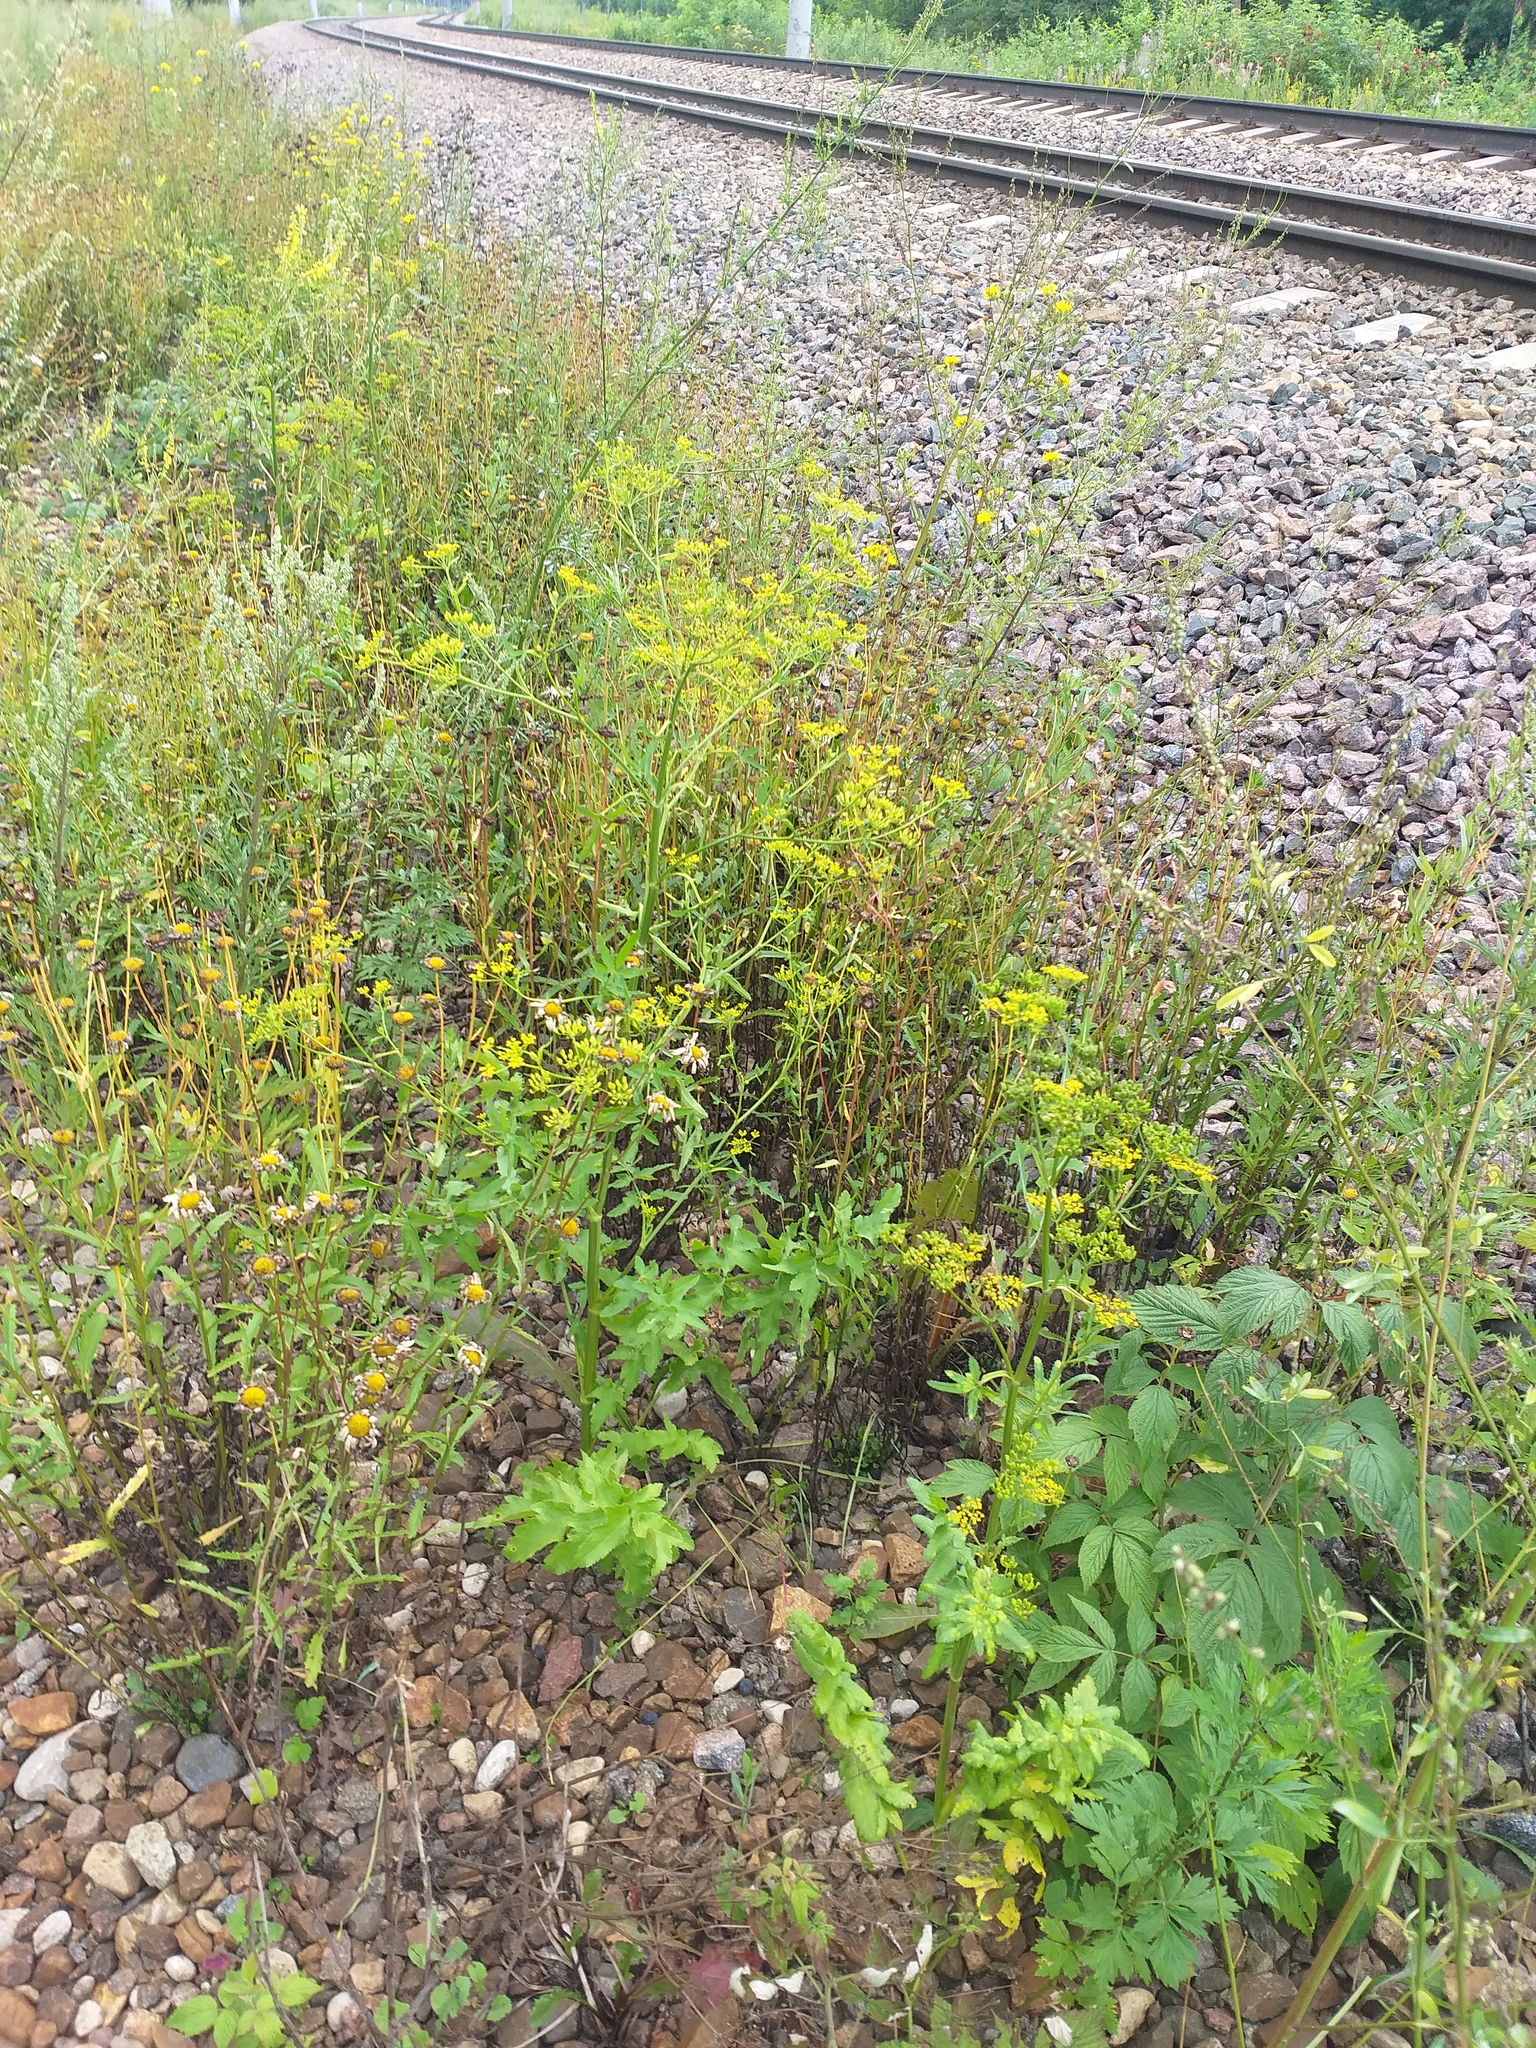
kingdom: Plantae
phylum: Tracheophyta
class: Magnoliopsida
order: Apiales
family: Apiaceae
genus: Pastinaca
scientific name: Pastinaca sativa
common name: Wild parsnip
